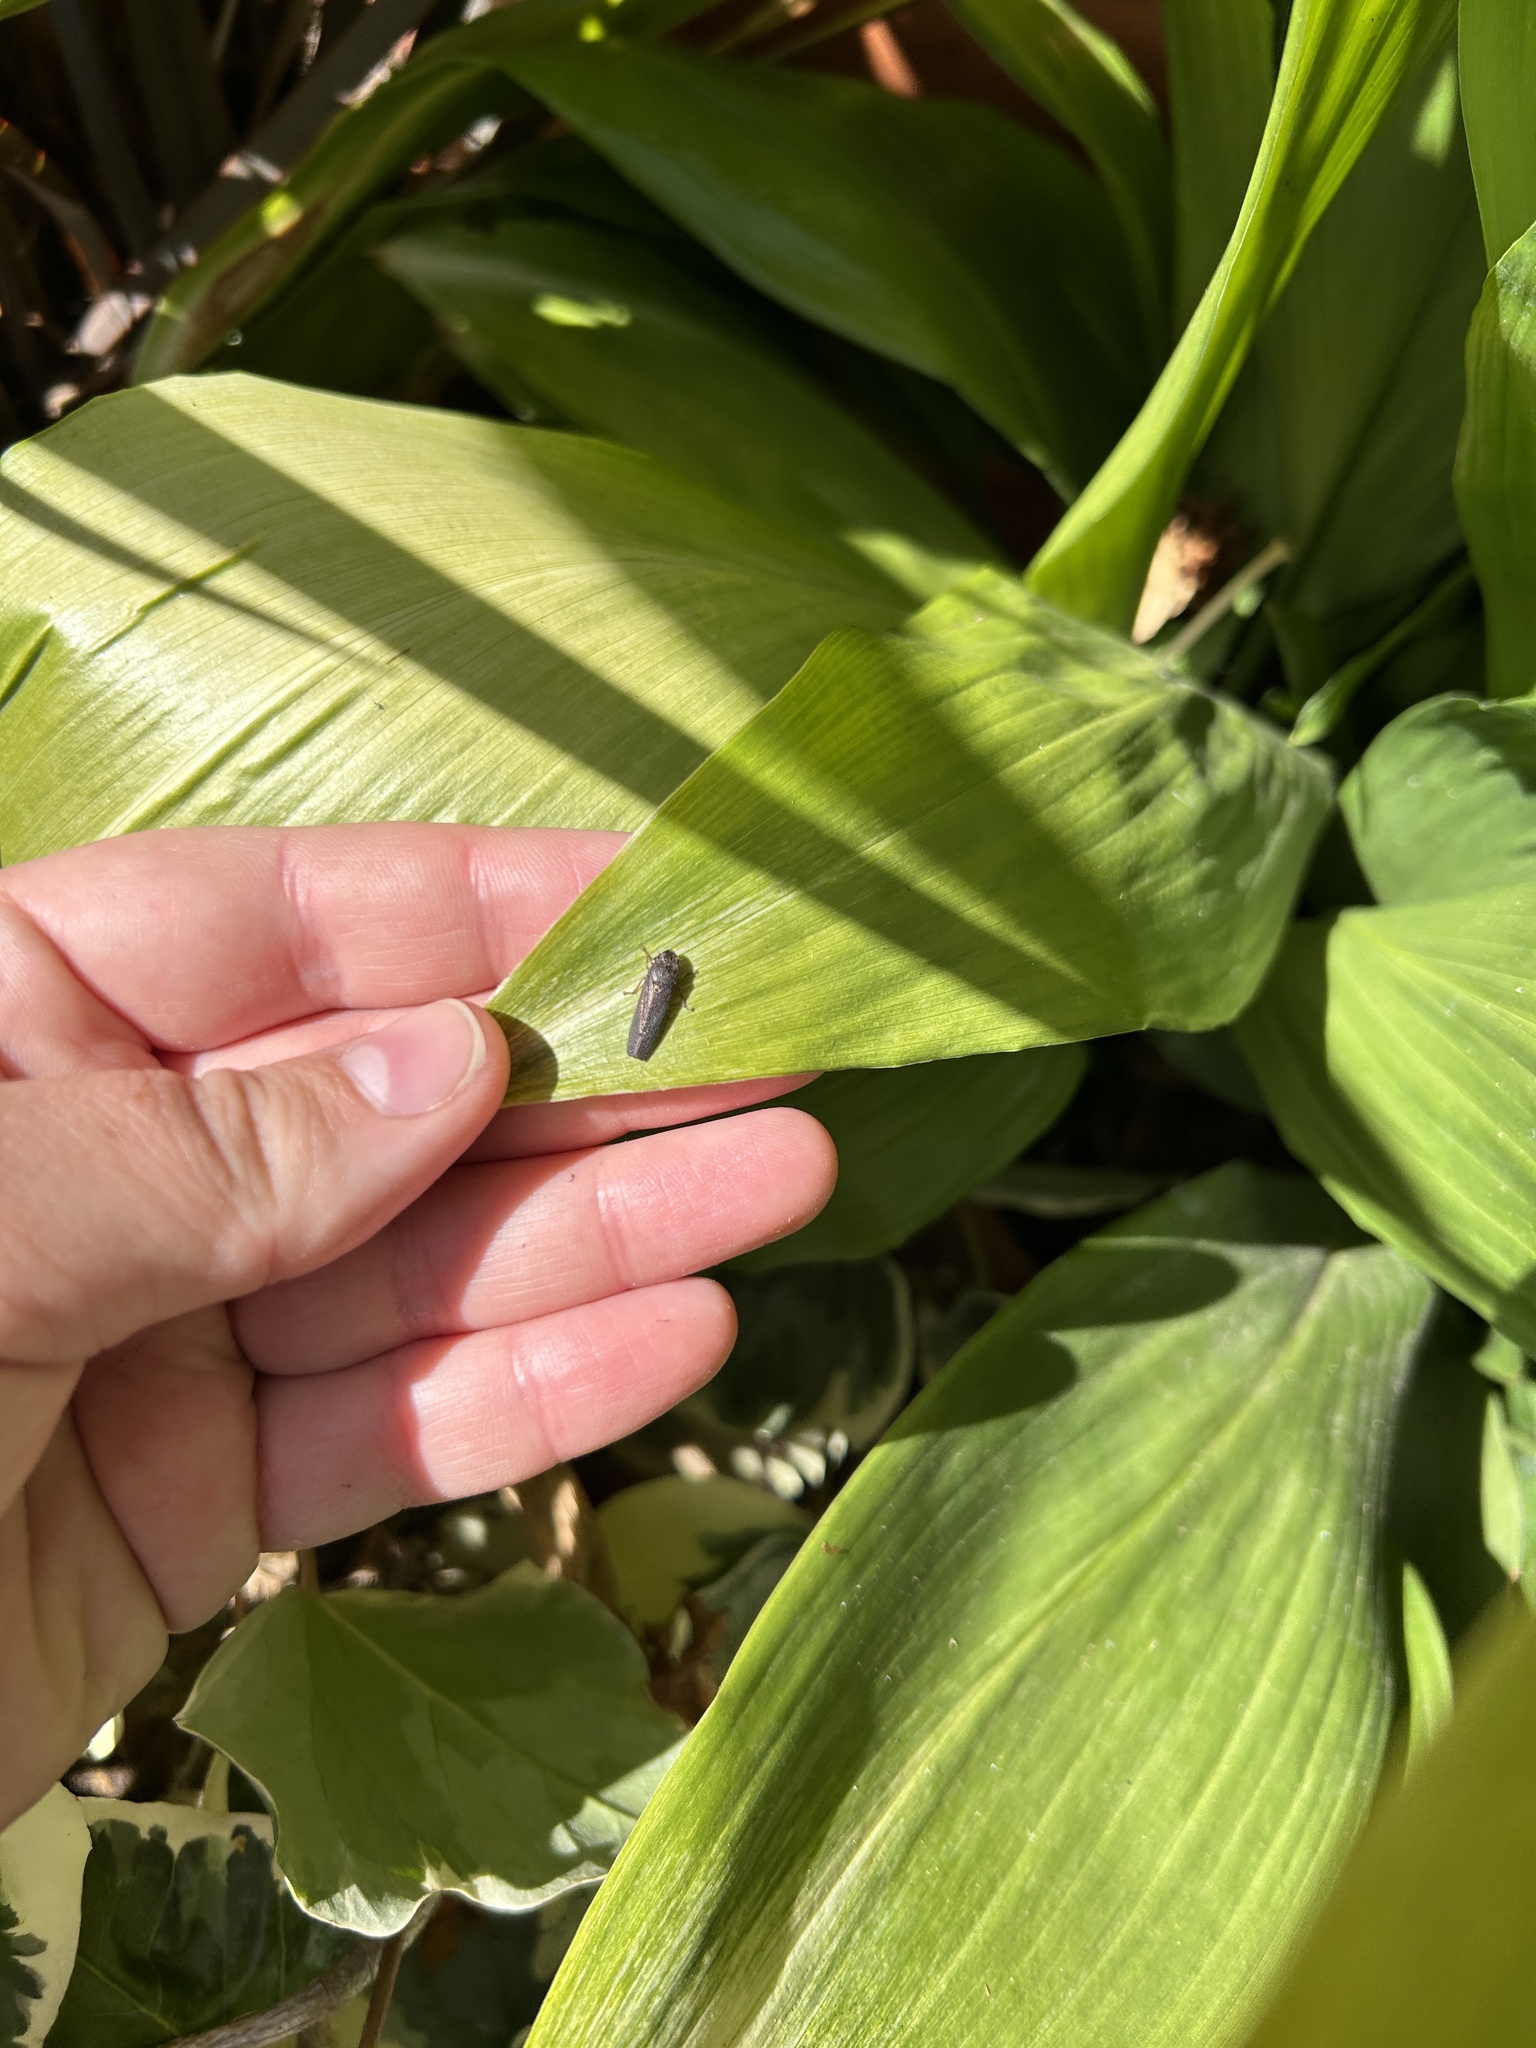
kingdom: Animalia
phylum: Arthropoda
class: Insecta
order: Hemiptera
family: Cicadellidae
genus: Paraulacizes
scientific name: Paraulacizes irrorata
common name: Speckled sharpshooter
